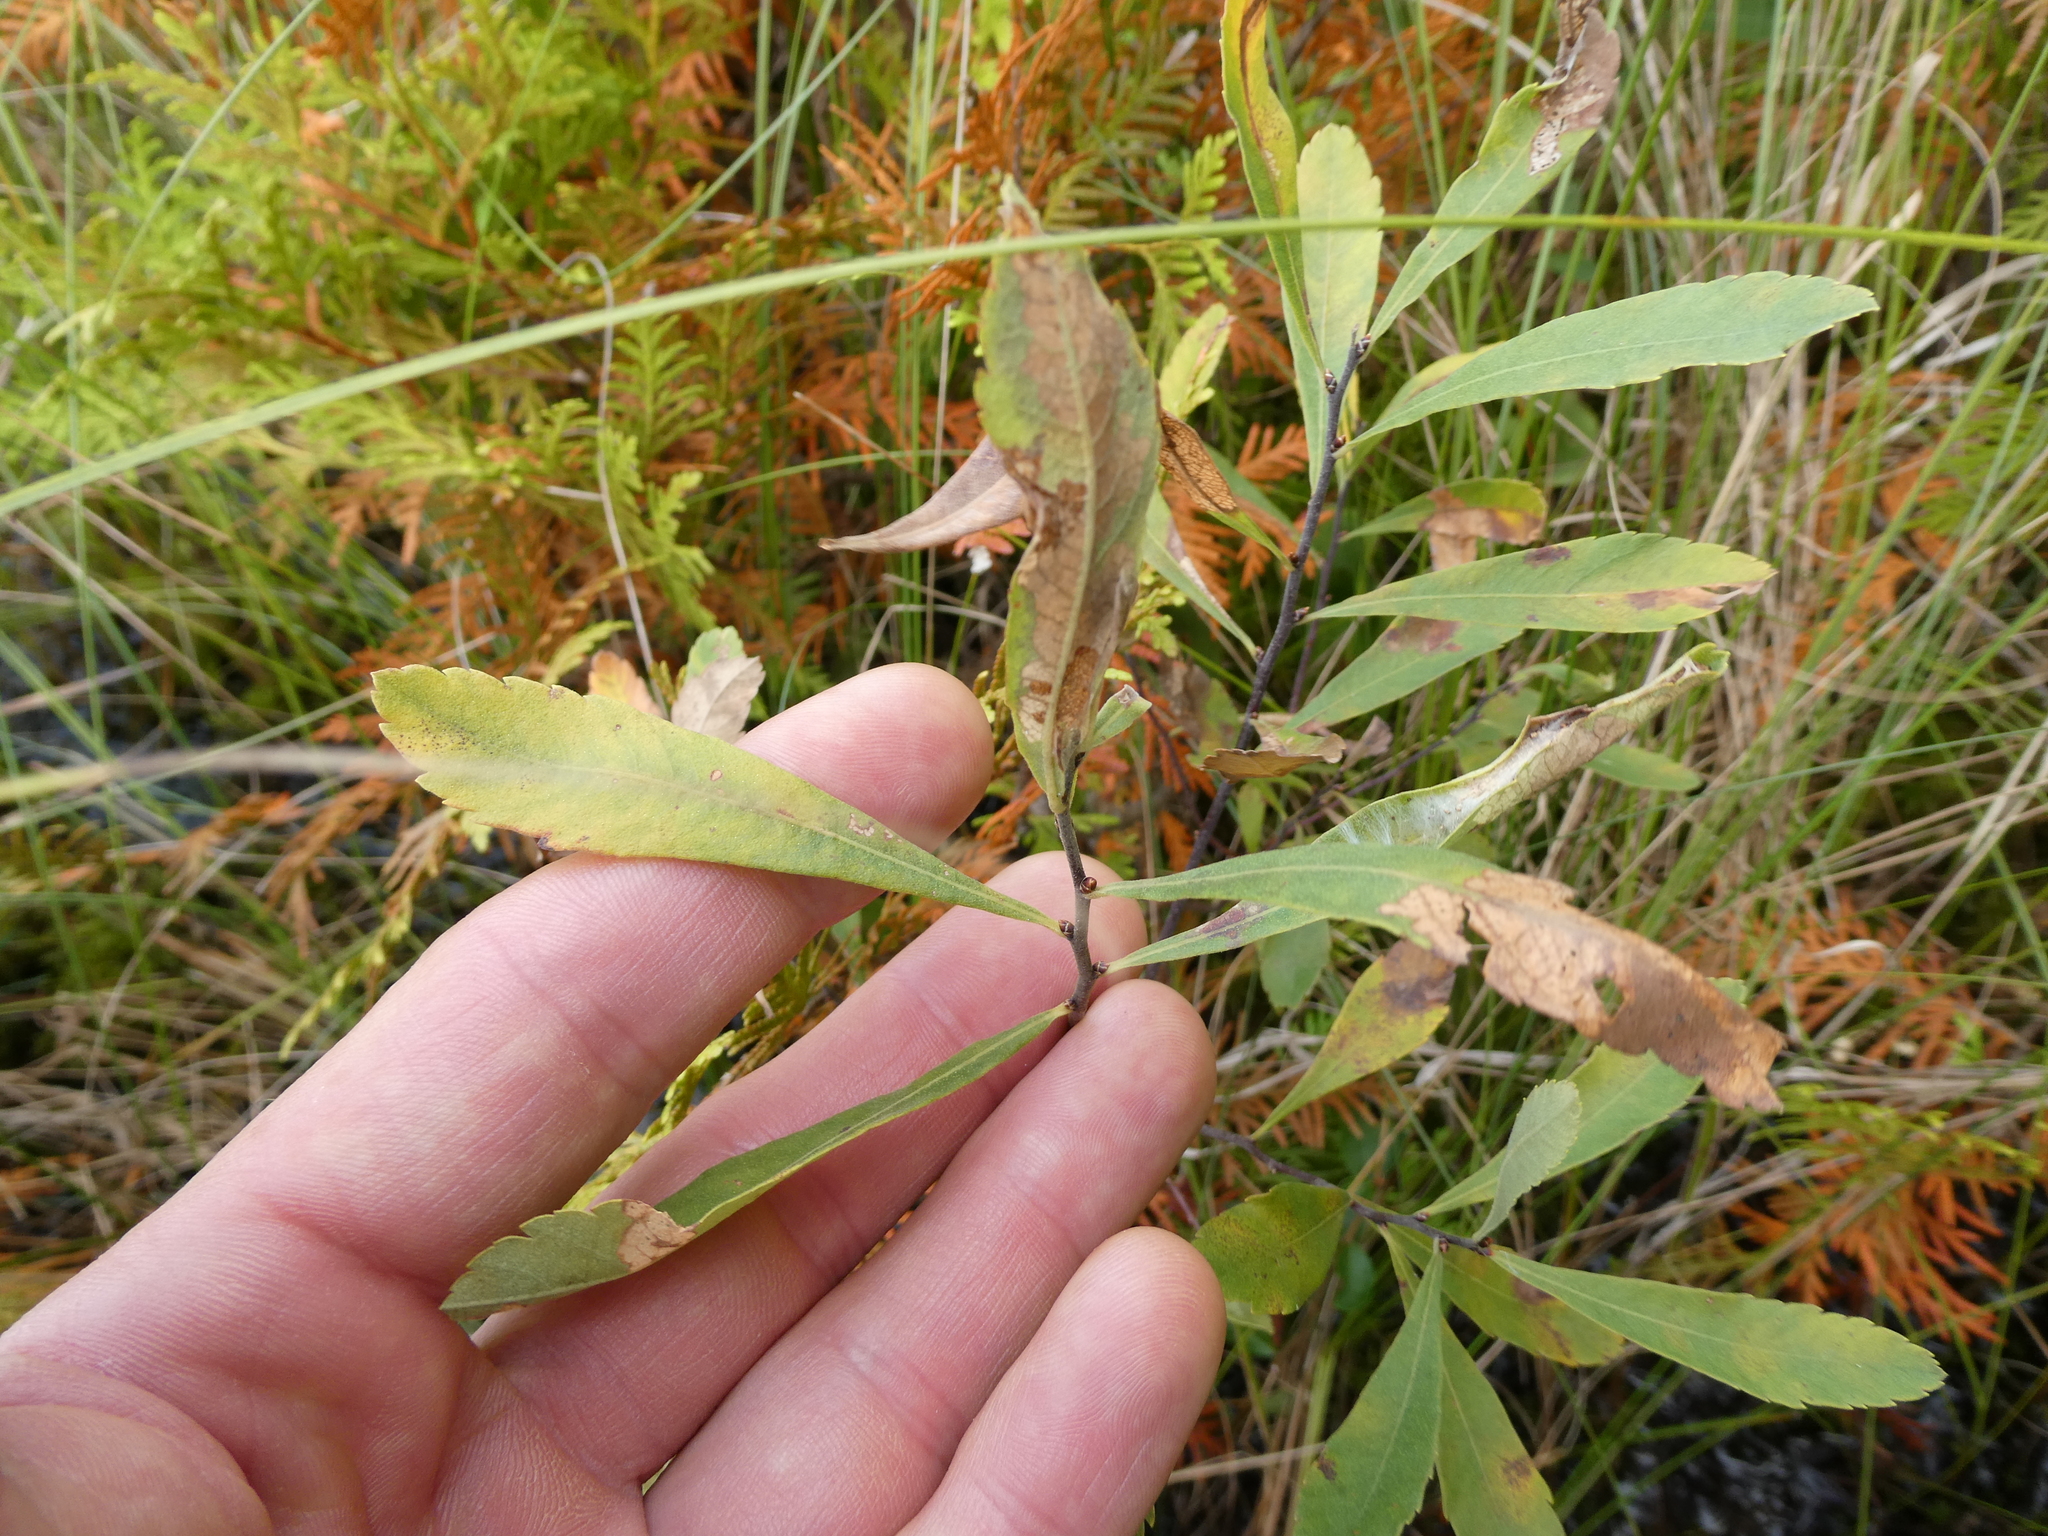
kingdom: Plantae
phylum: Tracheophyta
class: Magnoliopsida
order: Fagales
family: Myricaceae
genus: Myrica
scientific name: Myrica gale
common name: Sweet gale
